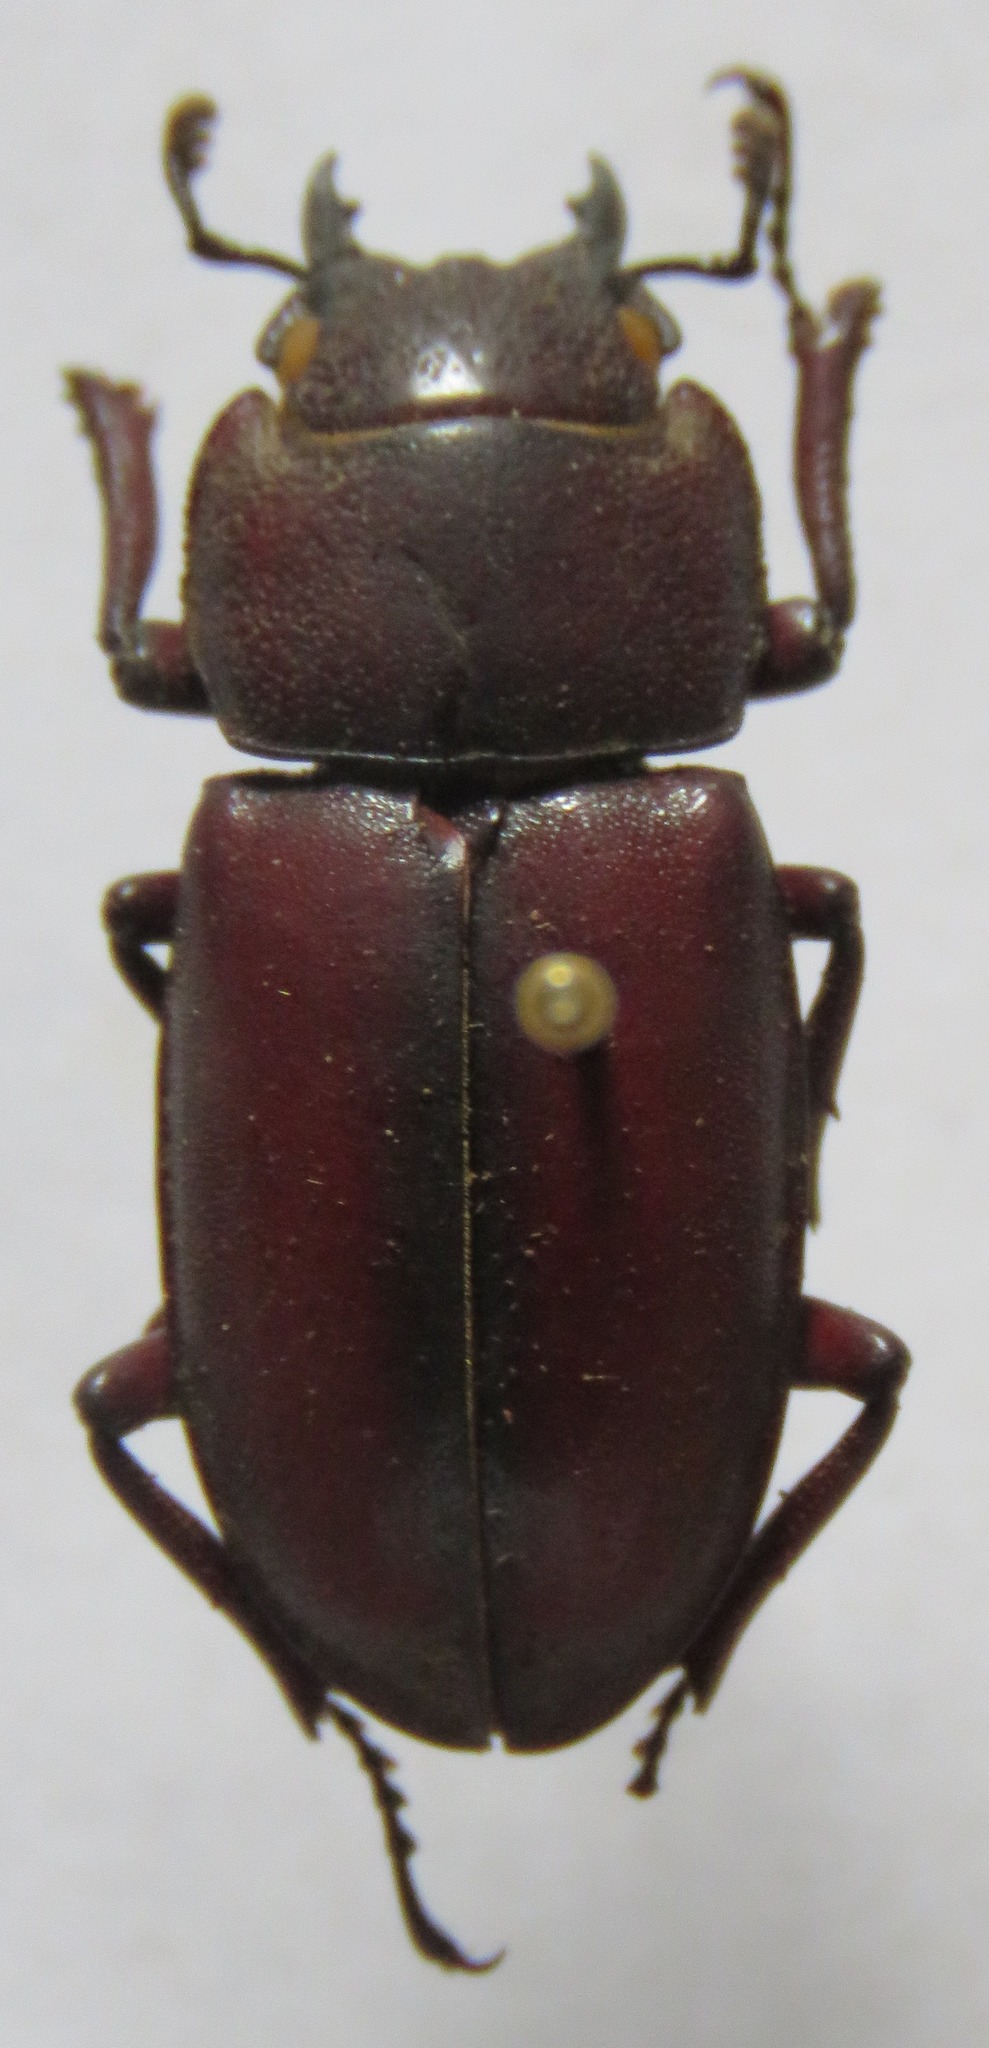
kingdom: Animalia
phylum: Arthropoda
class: Insecta
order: Coleoptera
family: Lucanidae
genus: Prosopocoilus
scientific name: Prosopocoilus macclellandi
